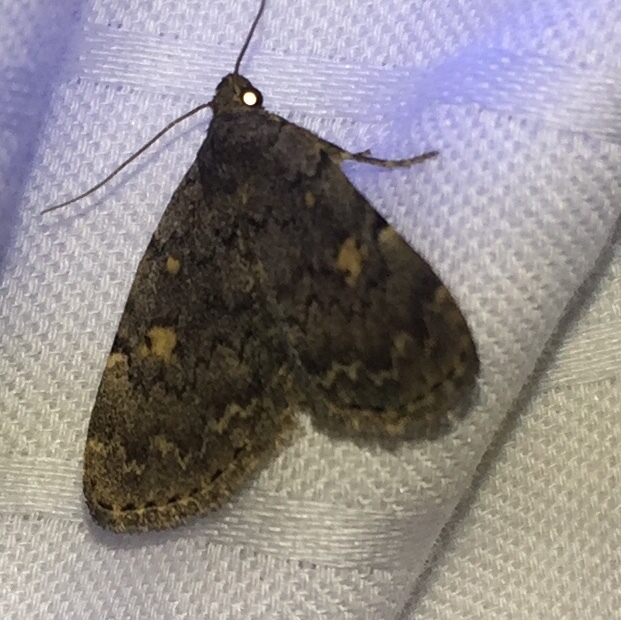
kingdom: Animalia
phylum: Arthropoda
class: Insecta
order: Lepidoptera
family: Erebidae
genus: Idia
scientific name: Idia aemula
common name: Common idia moth
